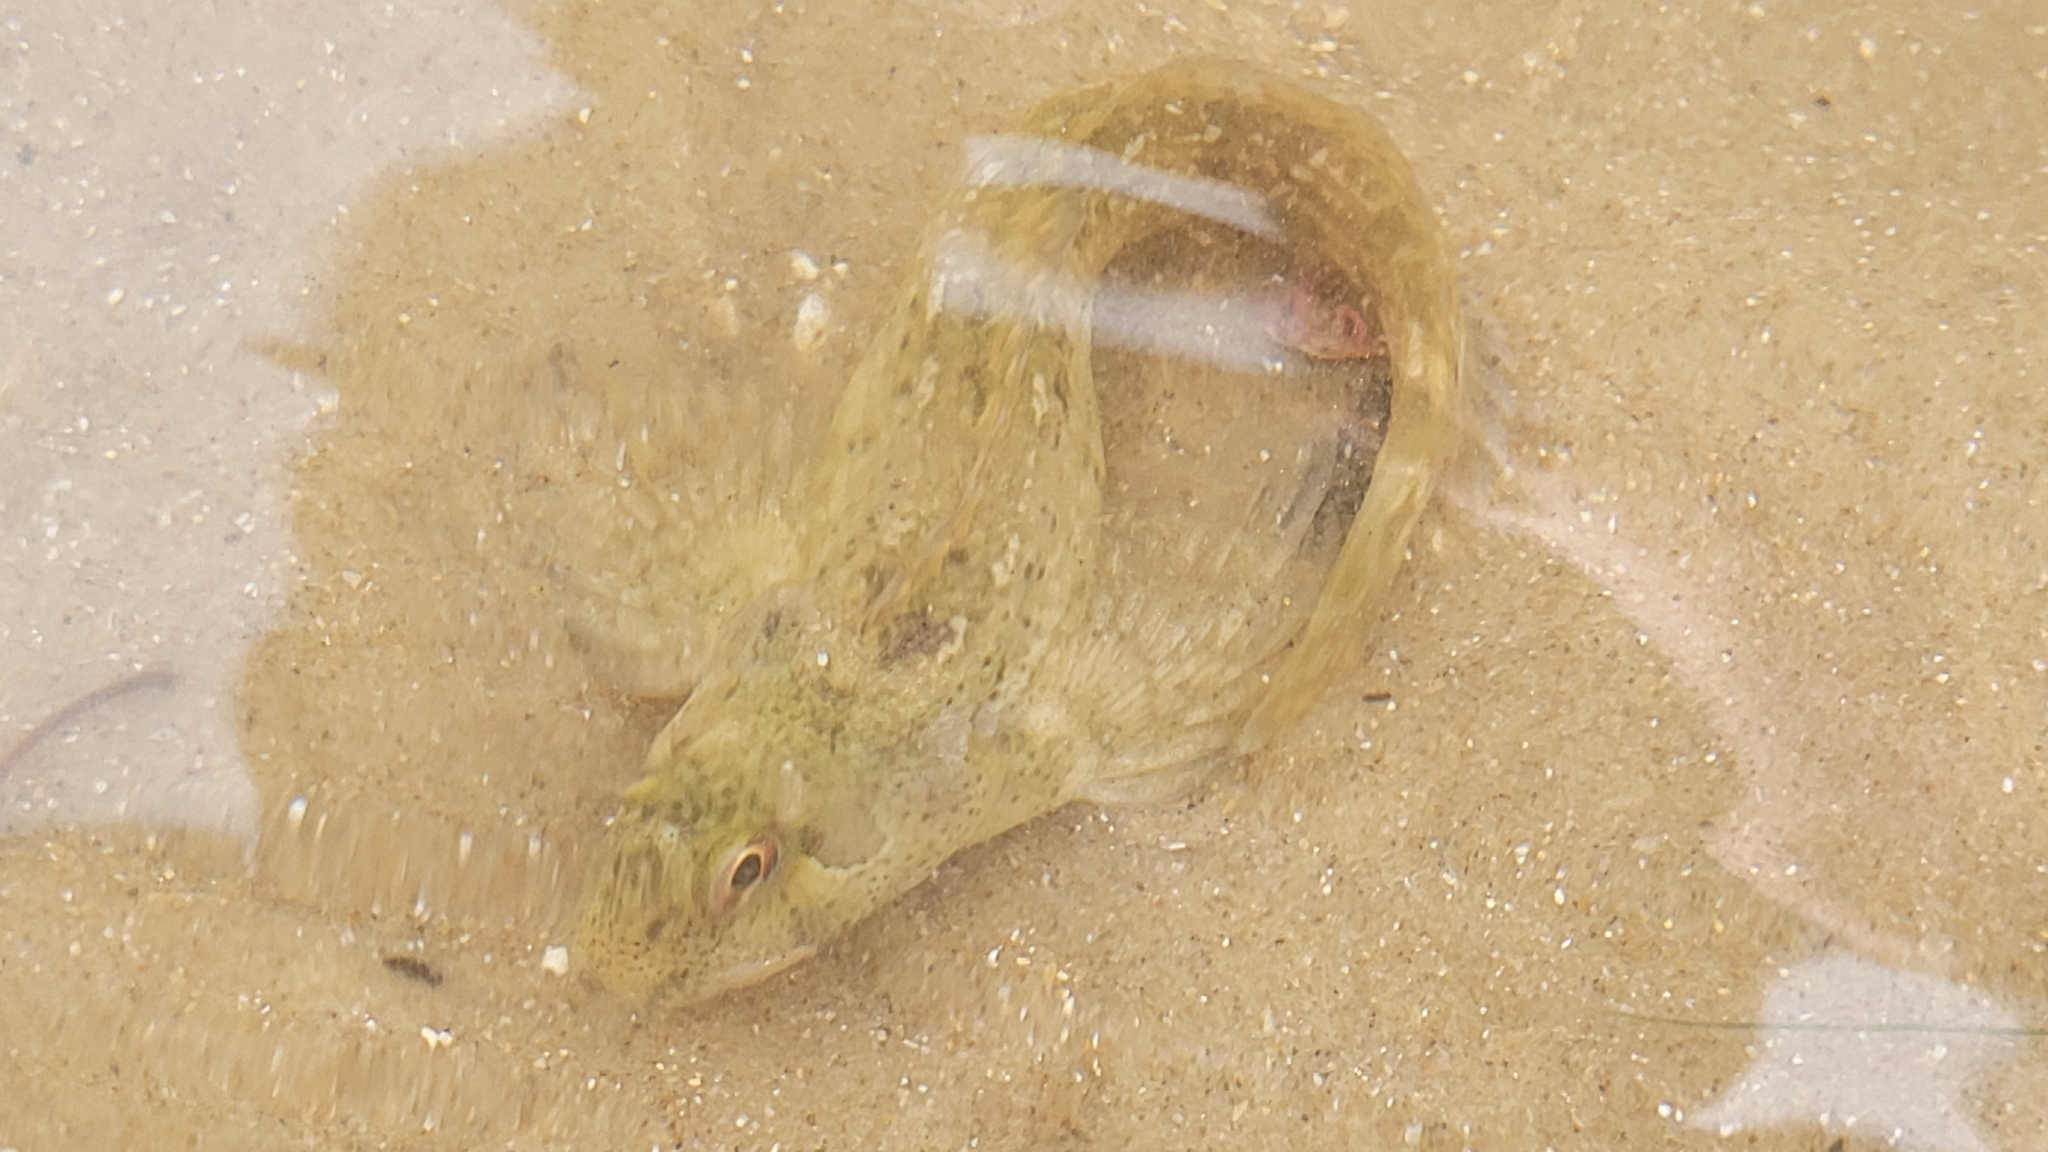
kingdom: Animalia
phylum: Chordata
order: Perciformes
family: Blenniidae
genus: Lipophrys
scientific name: Lipophrys pholis
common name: Shanny
